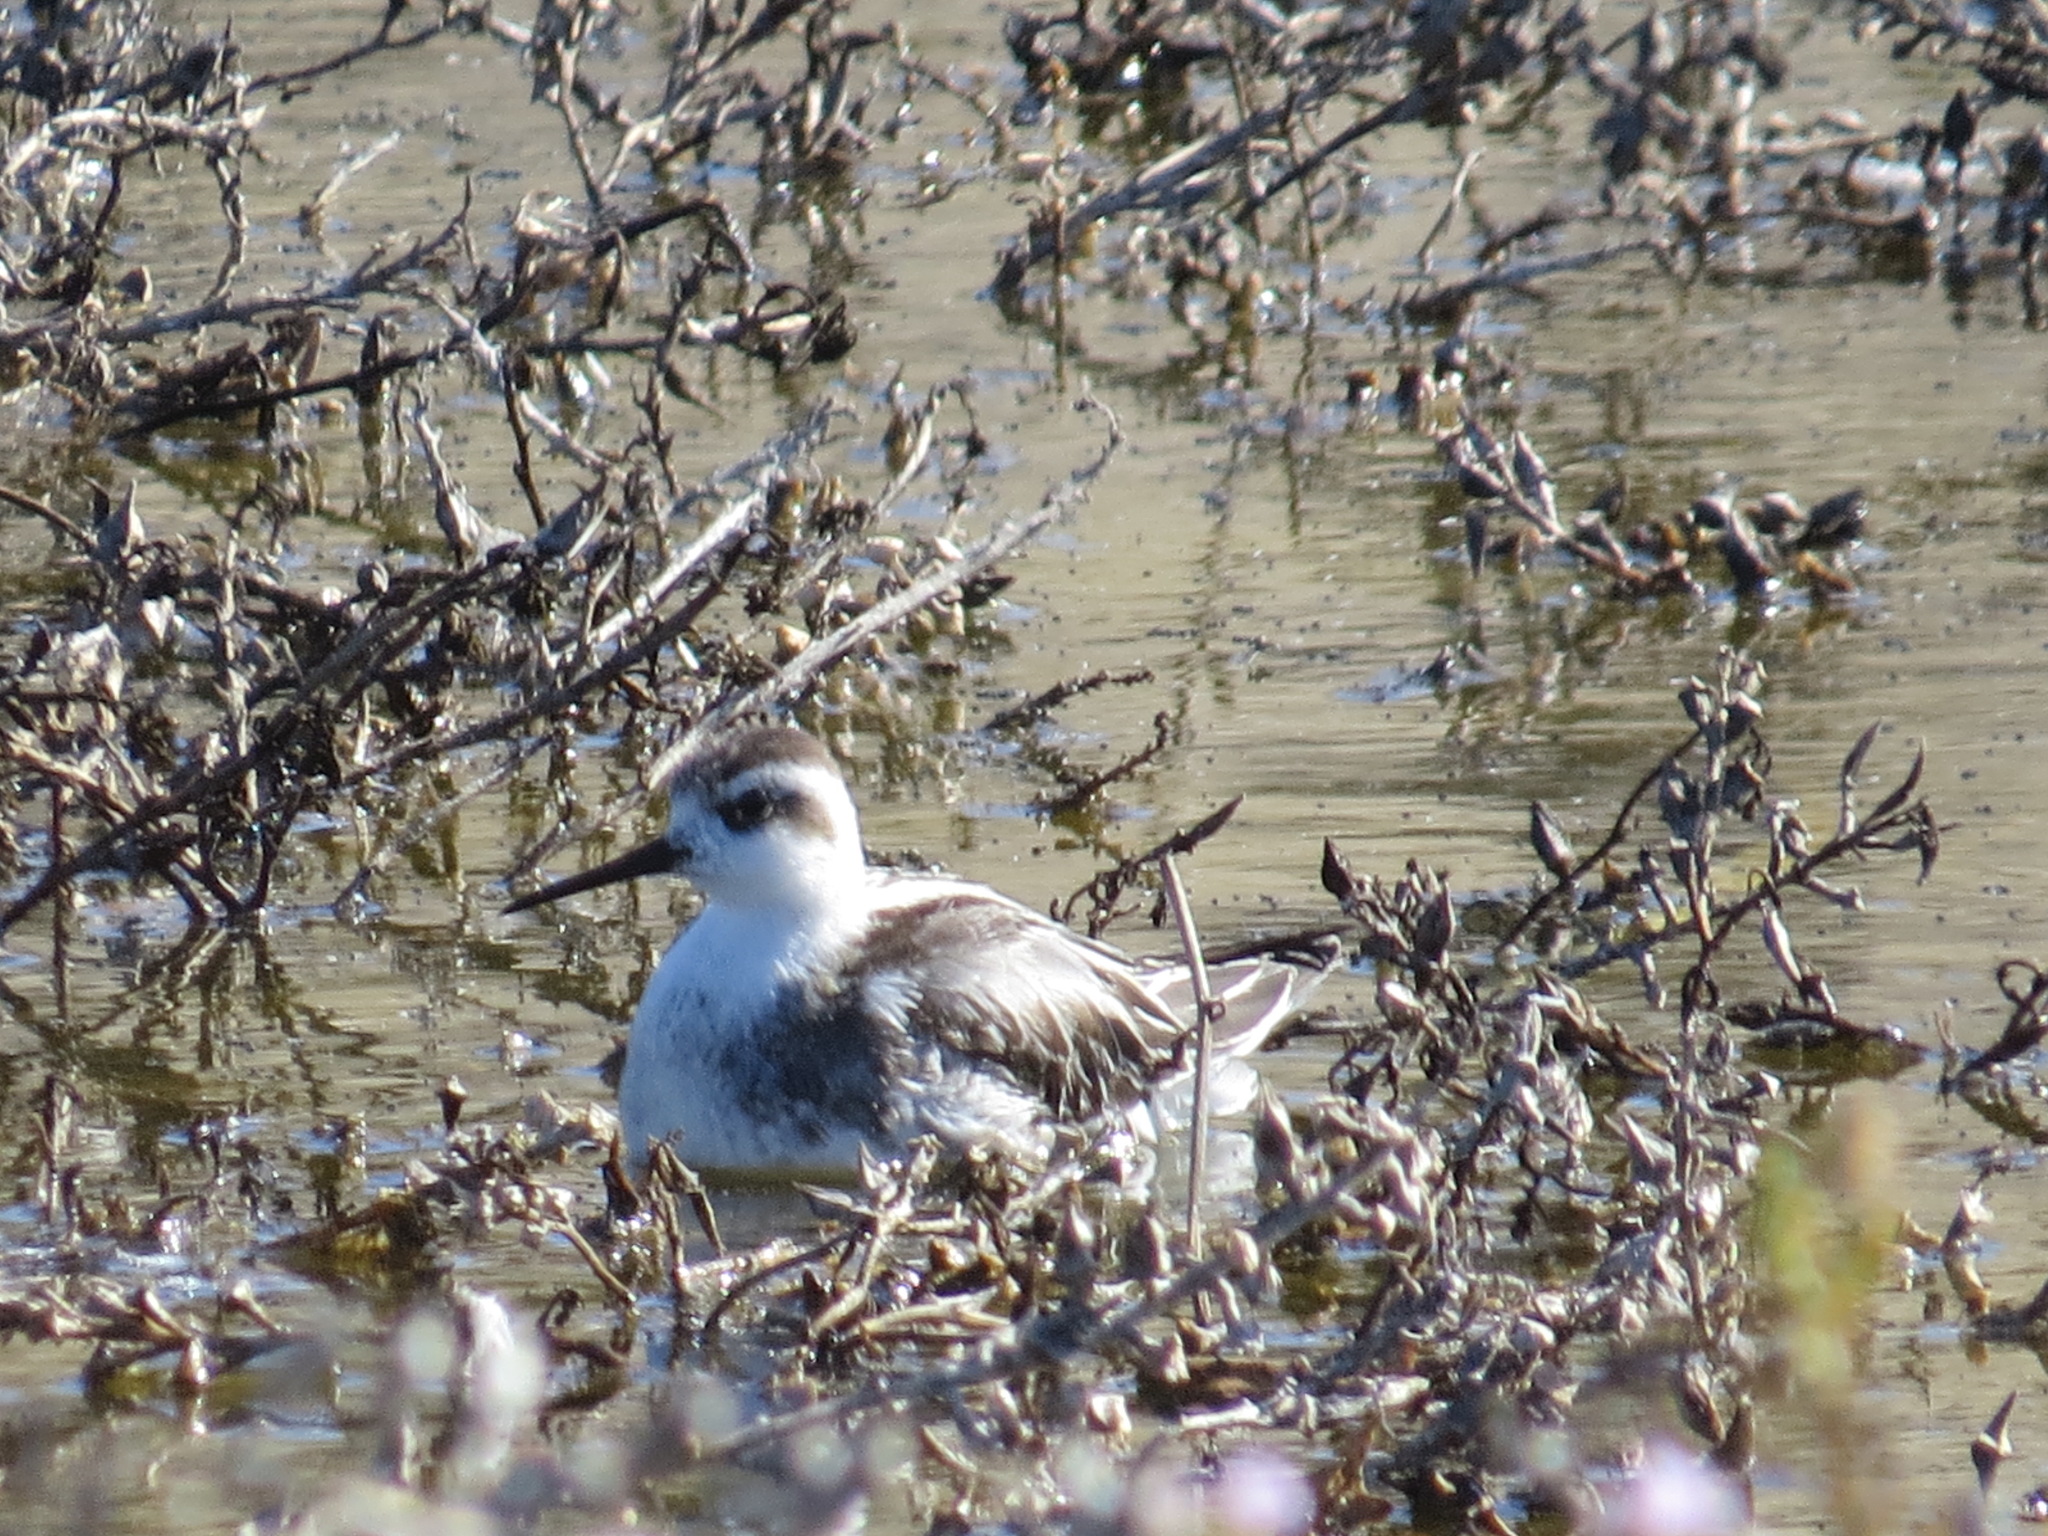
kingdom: Animalia
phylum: Chordata
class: Aves
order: Charadriiformes
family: Scolopacidae
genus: Phalaropus
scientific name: Phalaropus lobatus
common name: Red-necked phalarope
